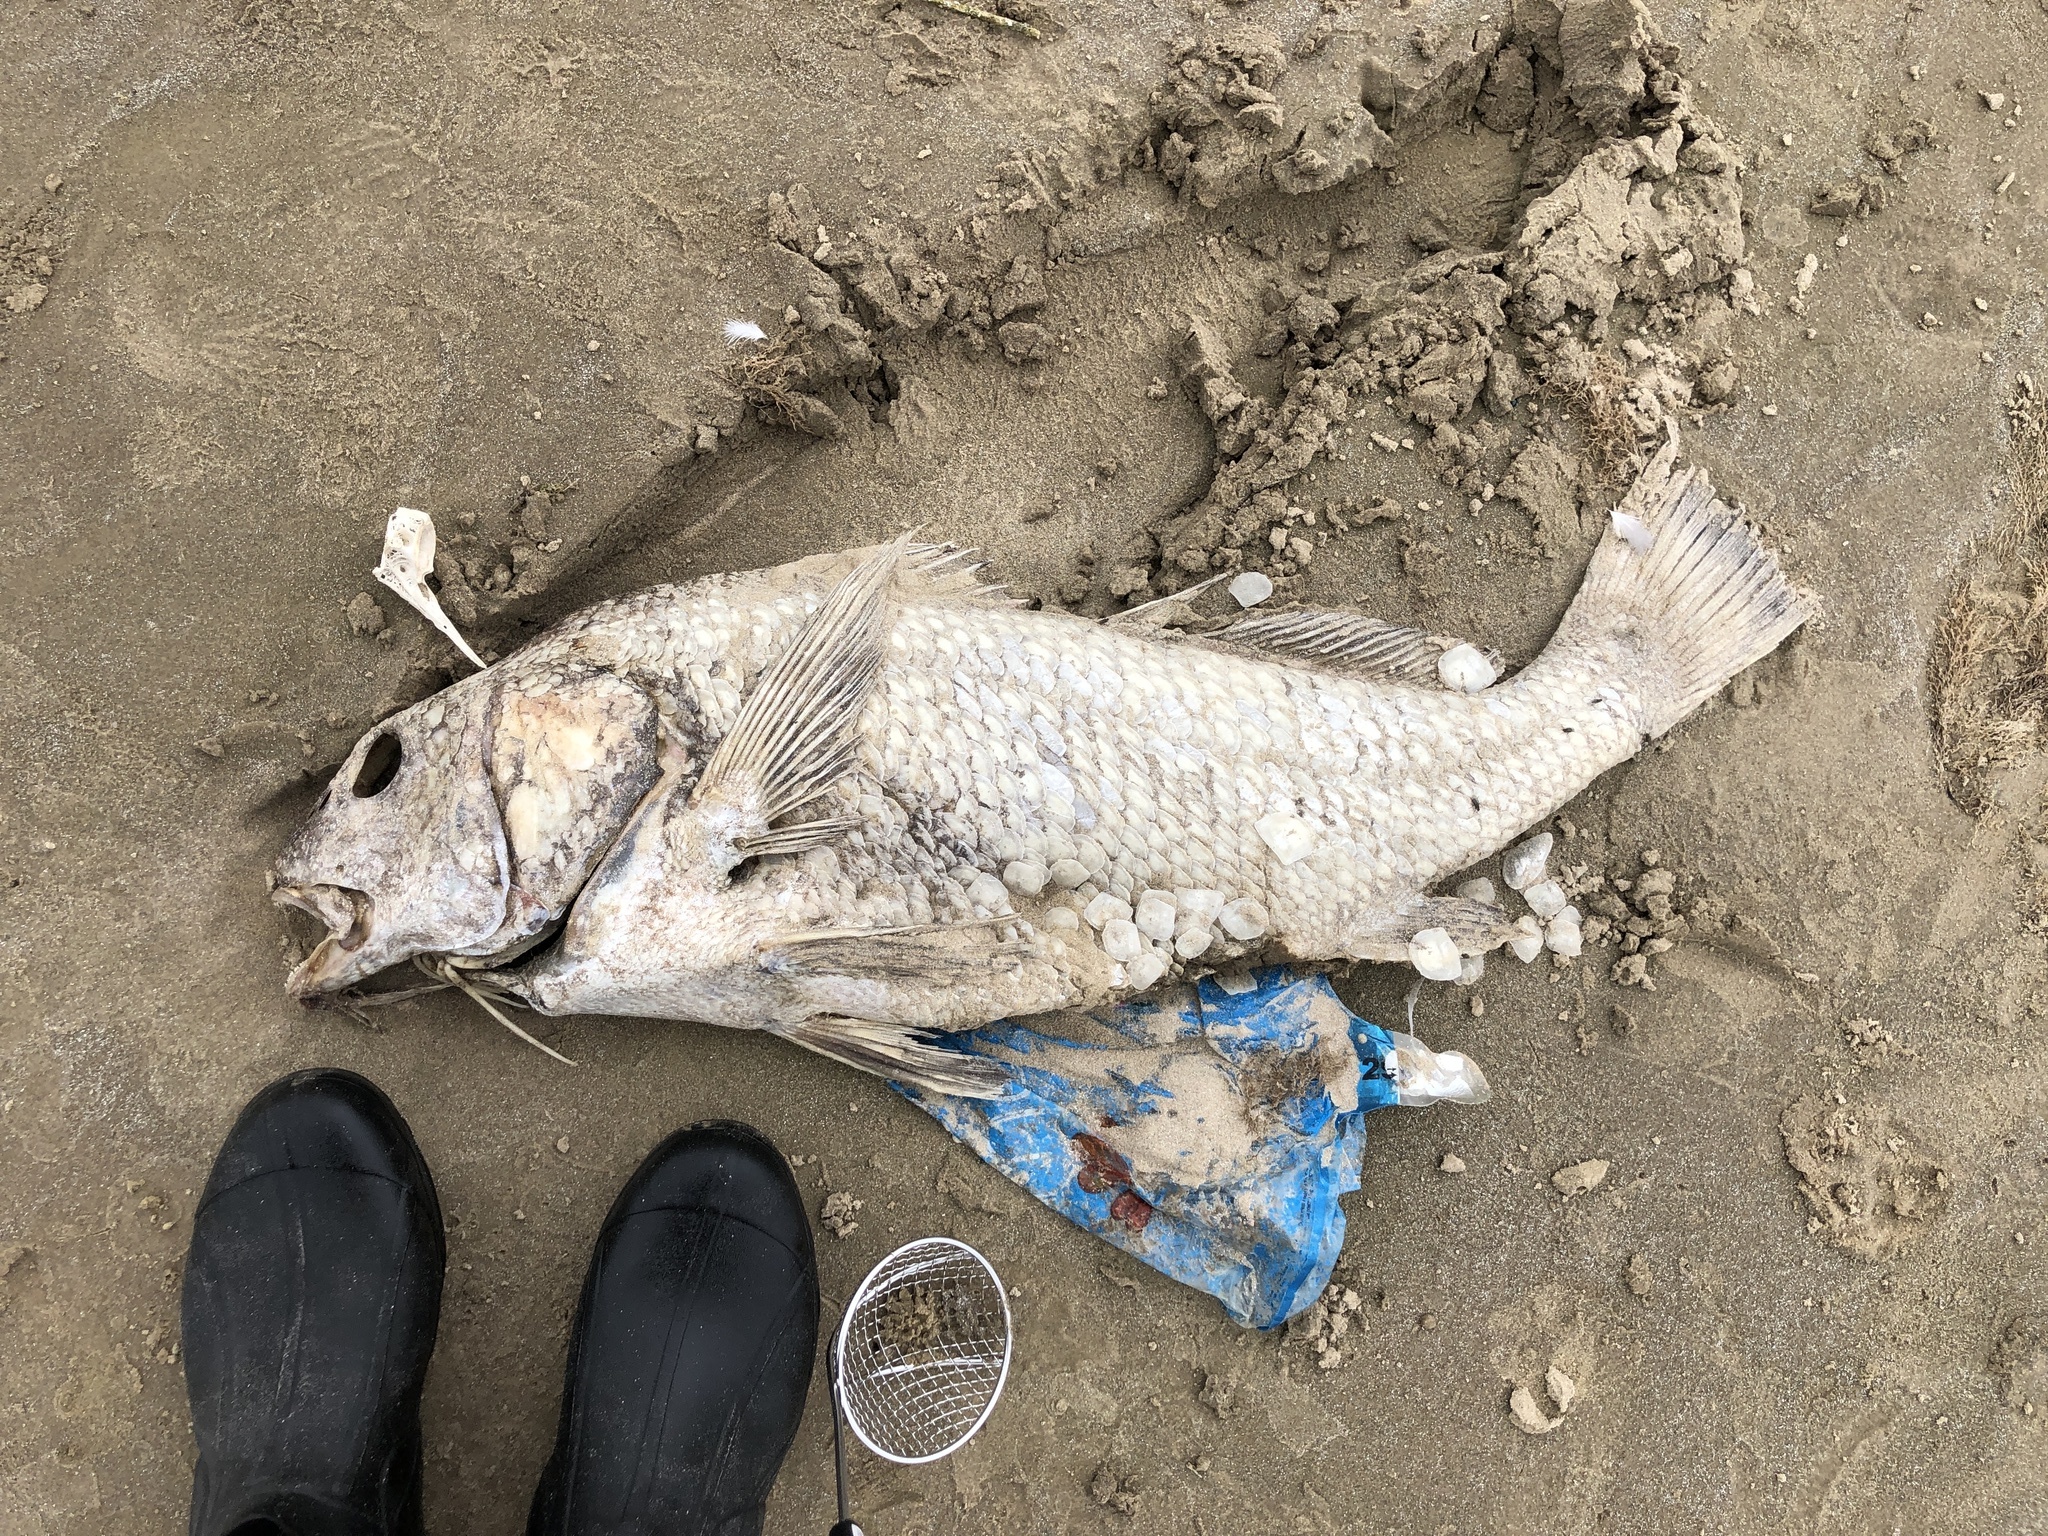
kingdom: Animalia
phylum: Chordata
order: Perciformes
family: Sciaenidae
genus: Pogonias
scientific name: Pogonias cromis
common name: Black drum
